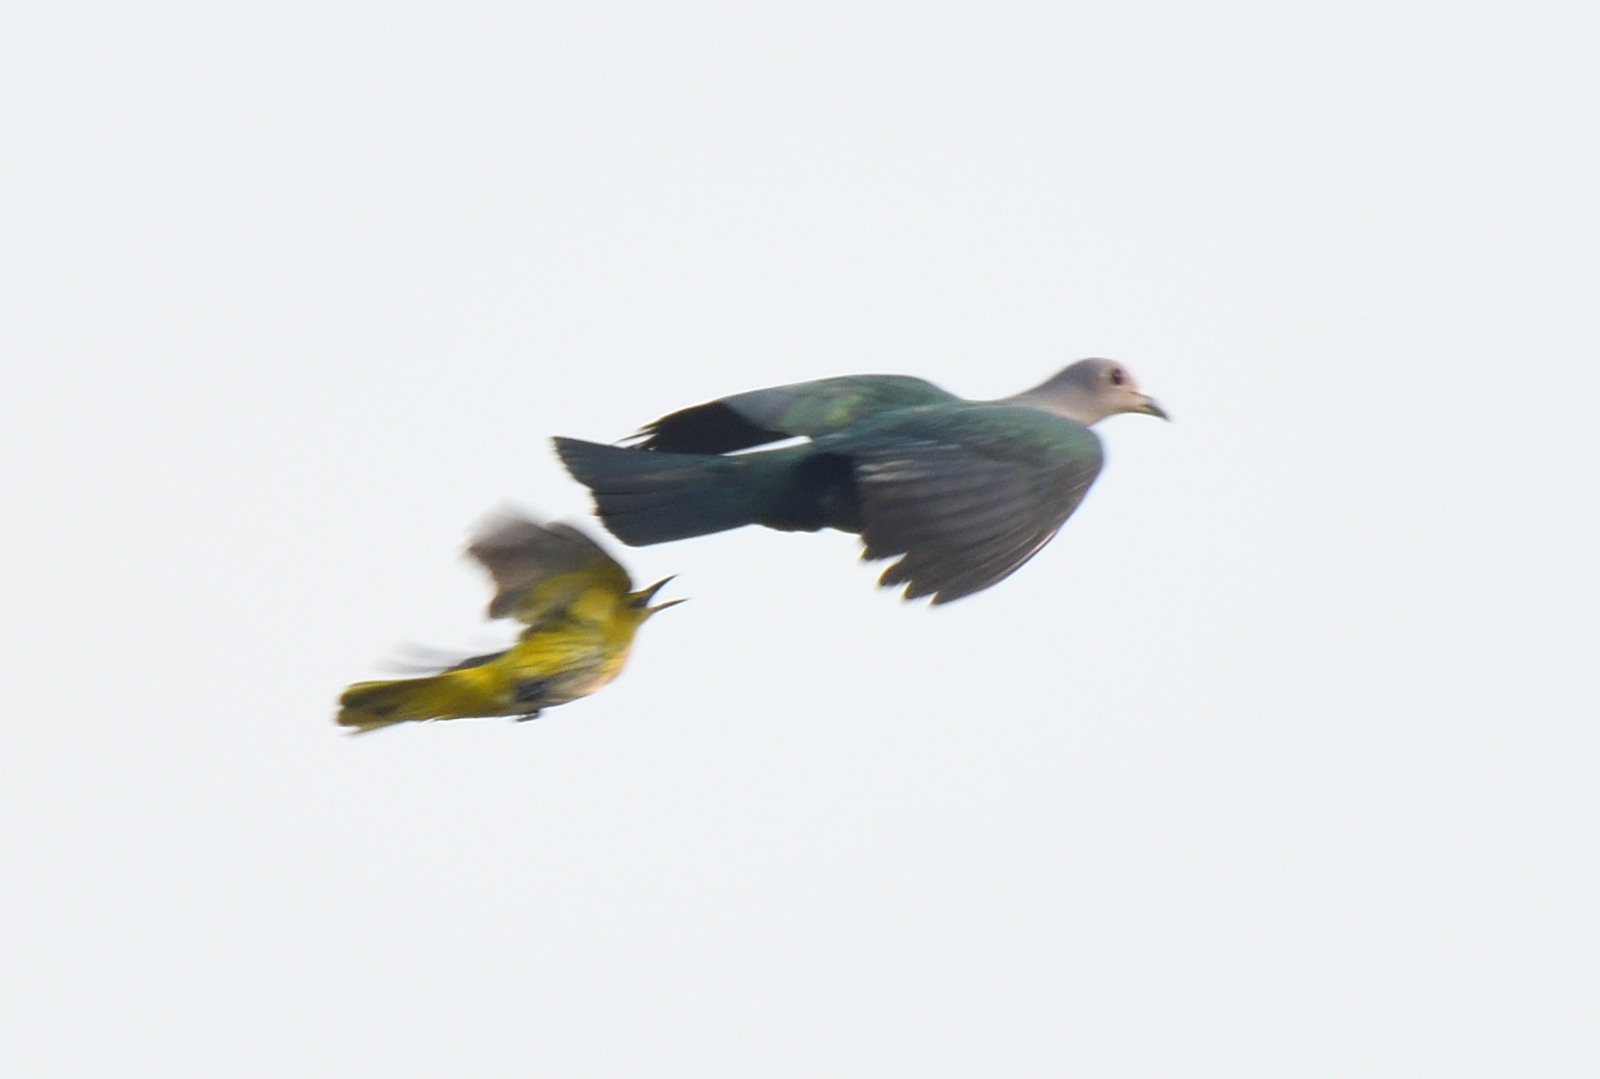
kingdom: Animalia
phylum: Chordata
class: Aves
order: Columbiformes
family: Columbidae
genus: Ducula
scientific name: Ducula aenea
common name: Green imperial pigeon
